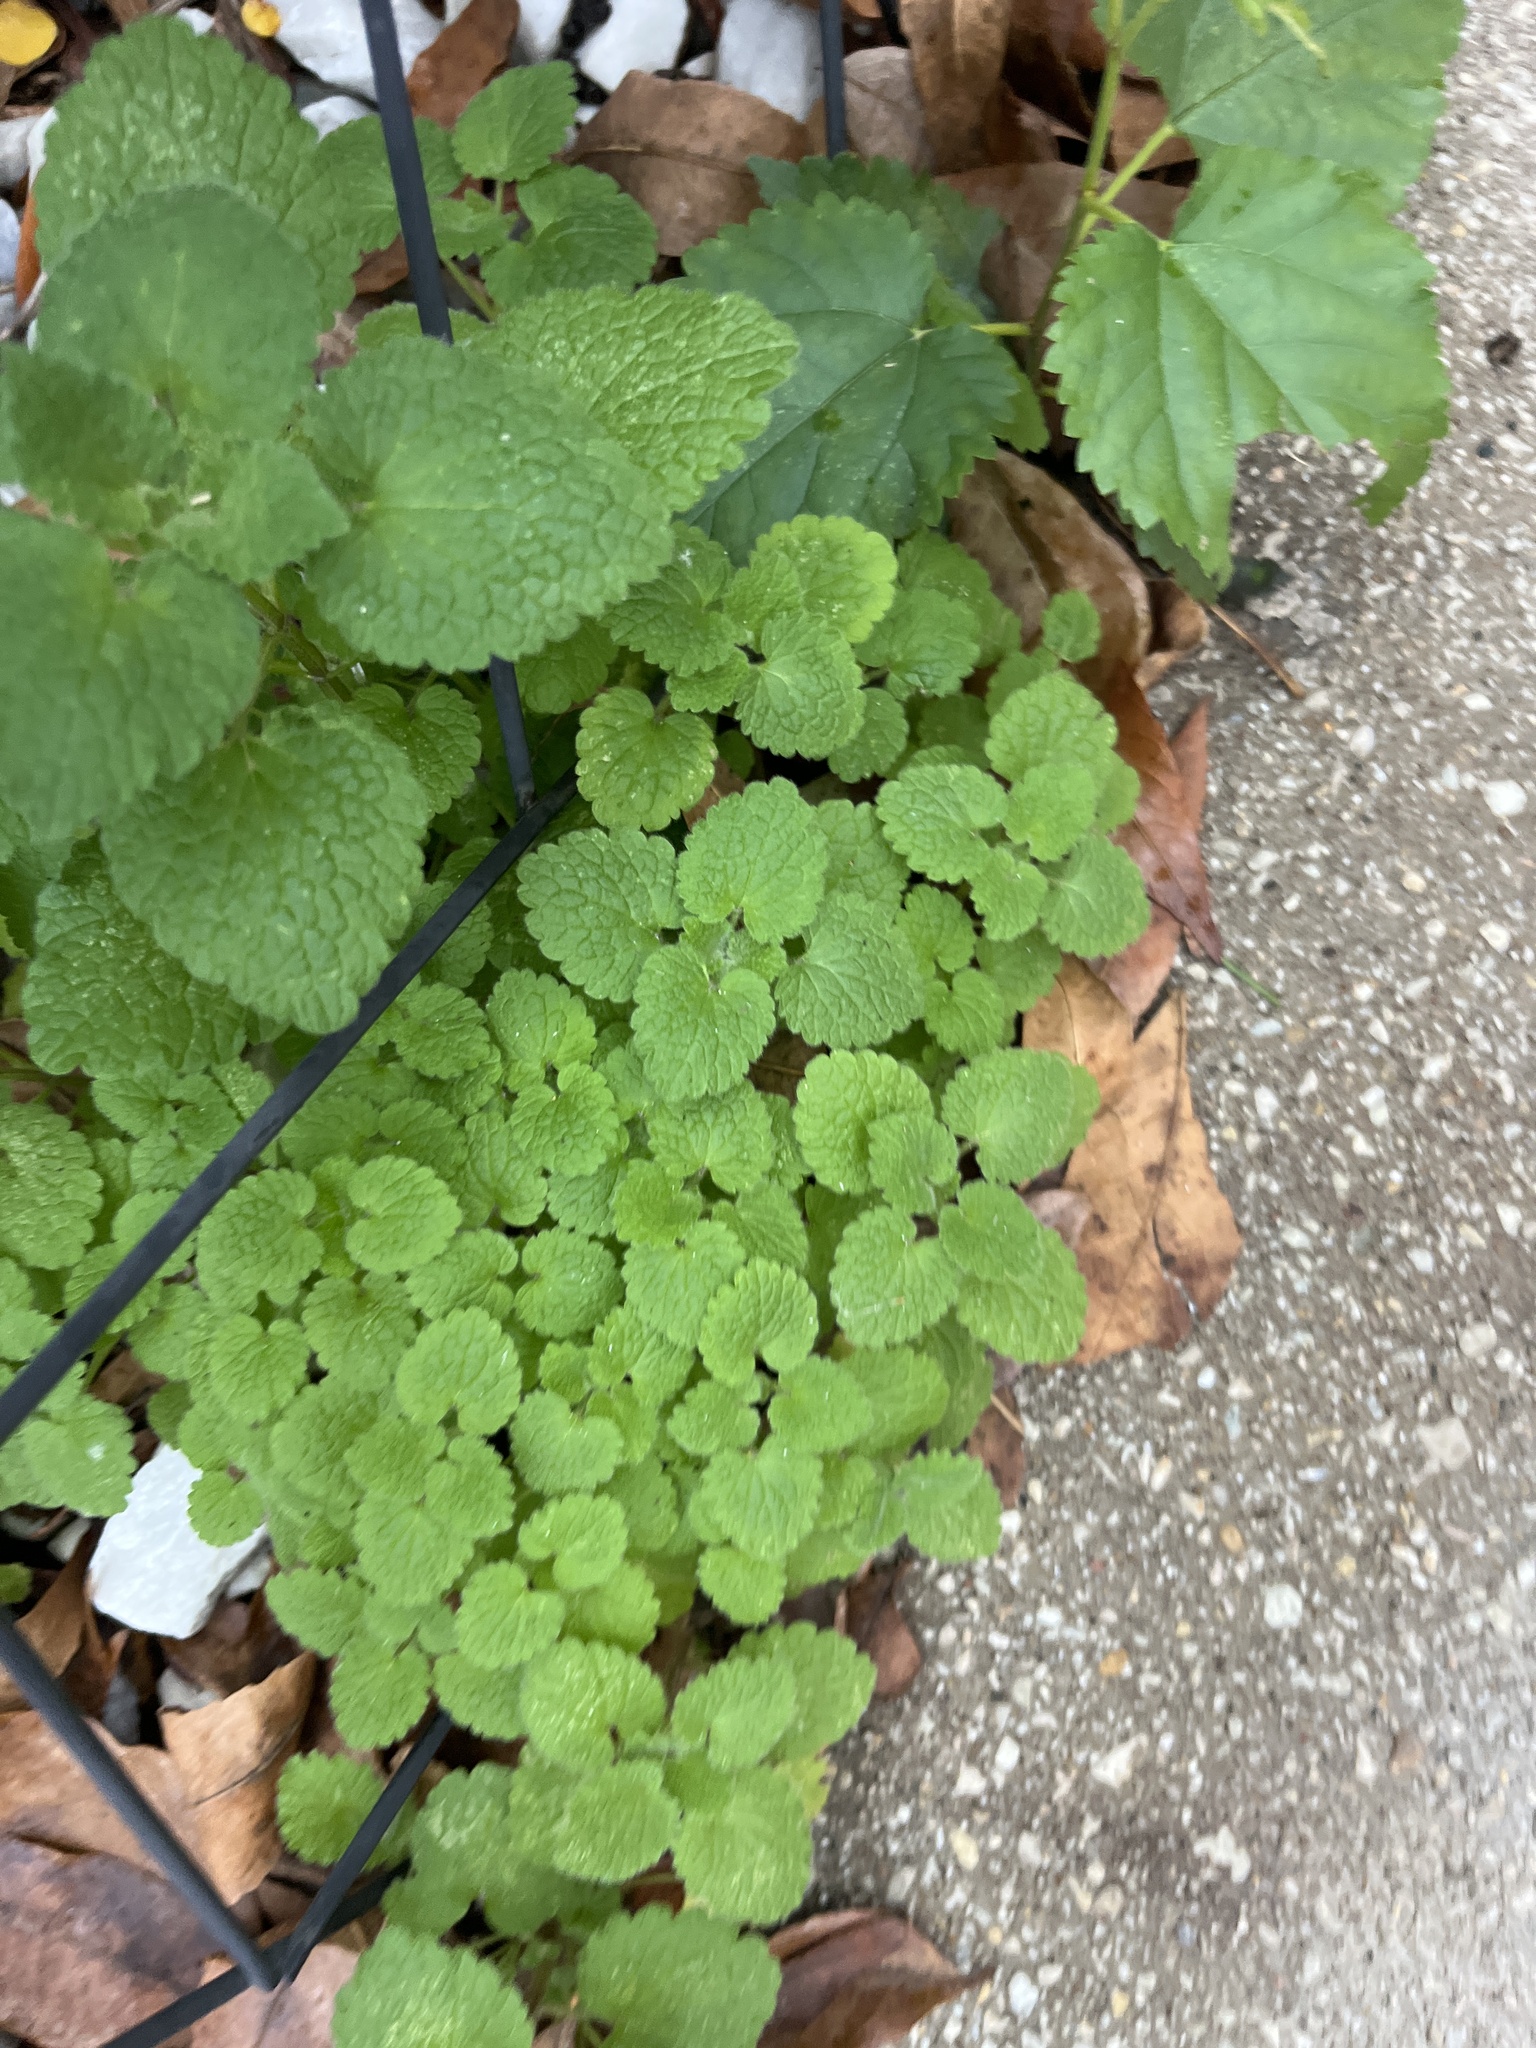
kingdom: Plantae
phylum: Tracheophyta
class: Magnoliopsida
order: Lamiales
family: Lamiaceae
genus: Lamium
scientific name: Lamium purpureum
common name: Red dead-nettle
